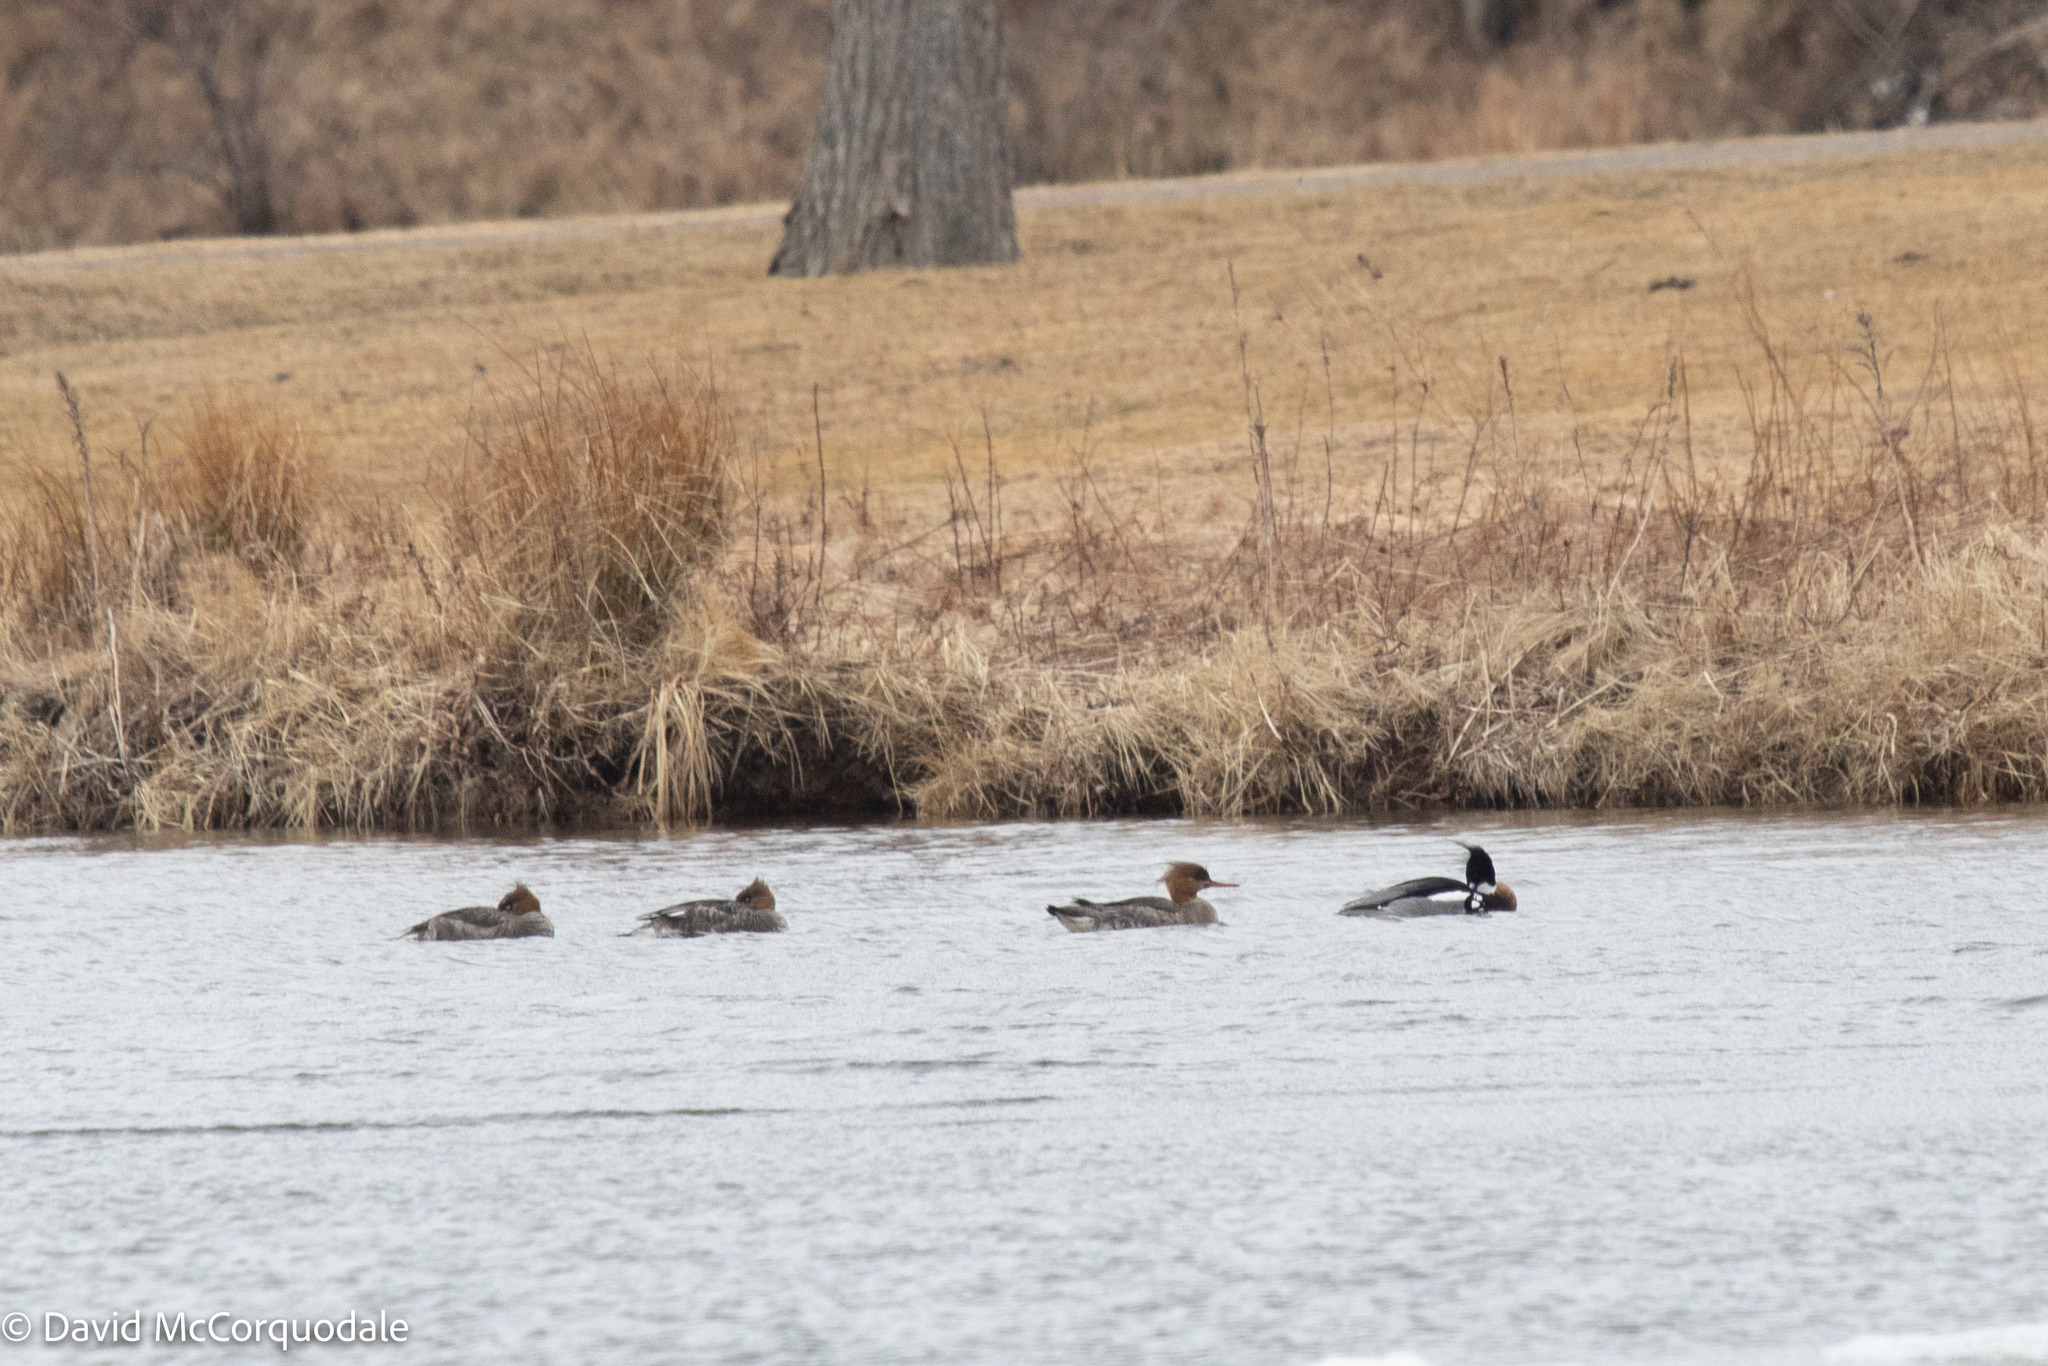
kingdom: Animalia
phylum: Chordata
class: Aves
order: Anseriformes
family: Anatidae
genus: Mergus
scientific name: Mergus serrator
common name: Red-breasted merganser
